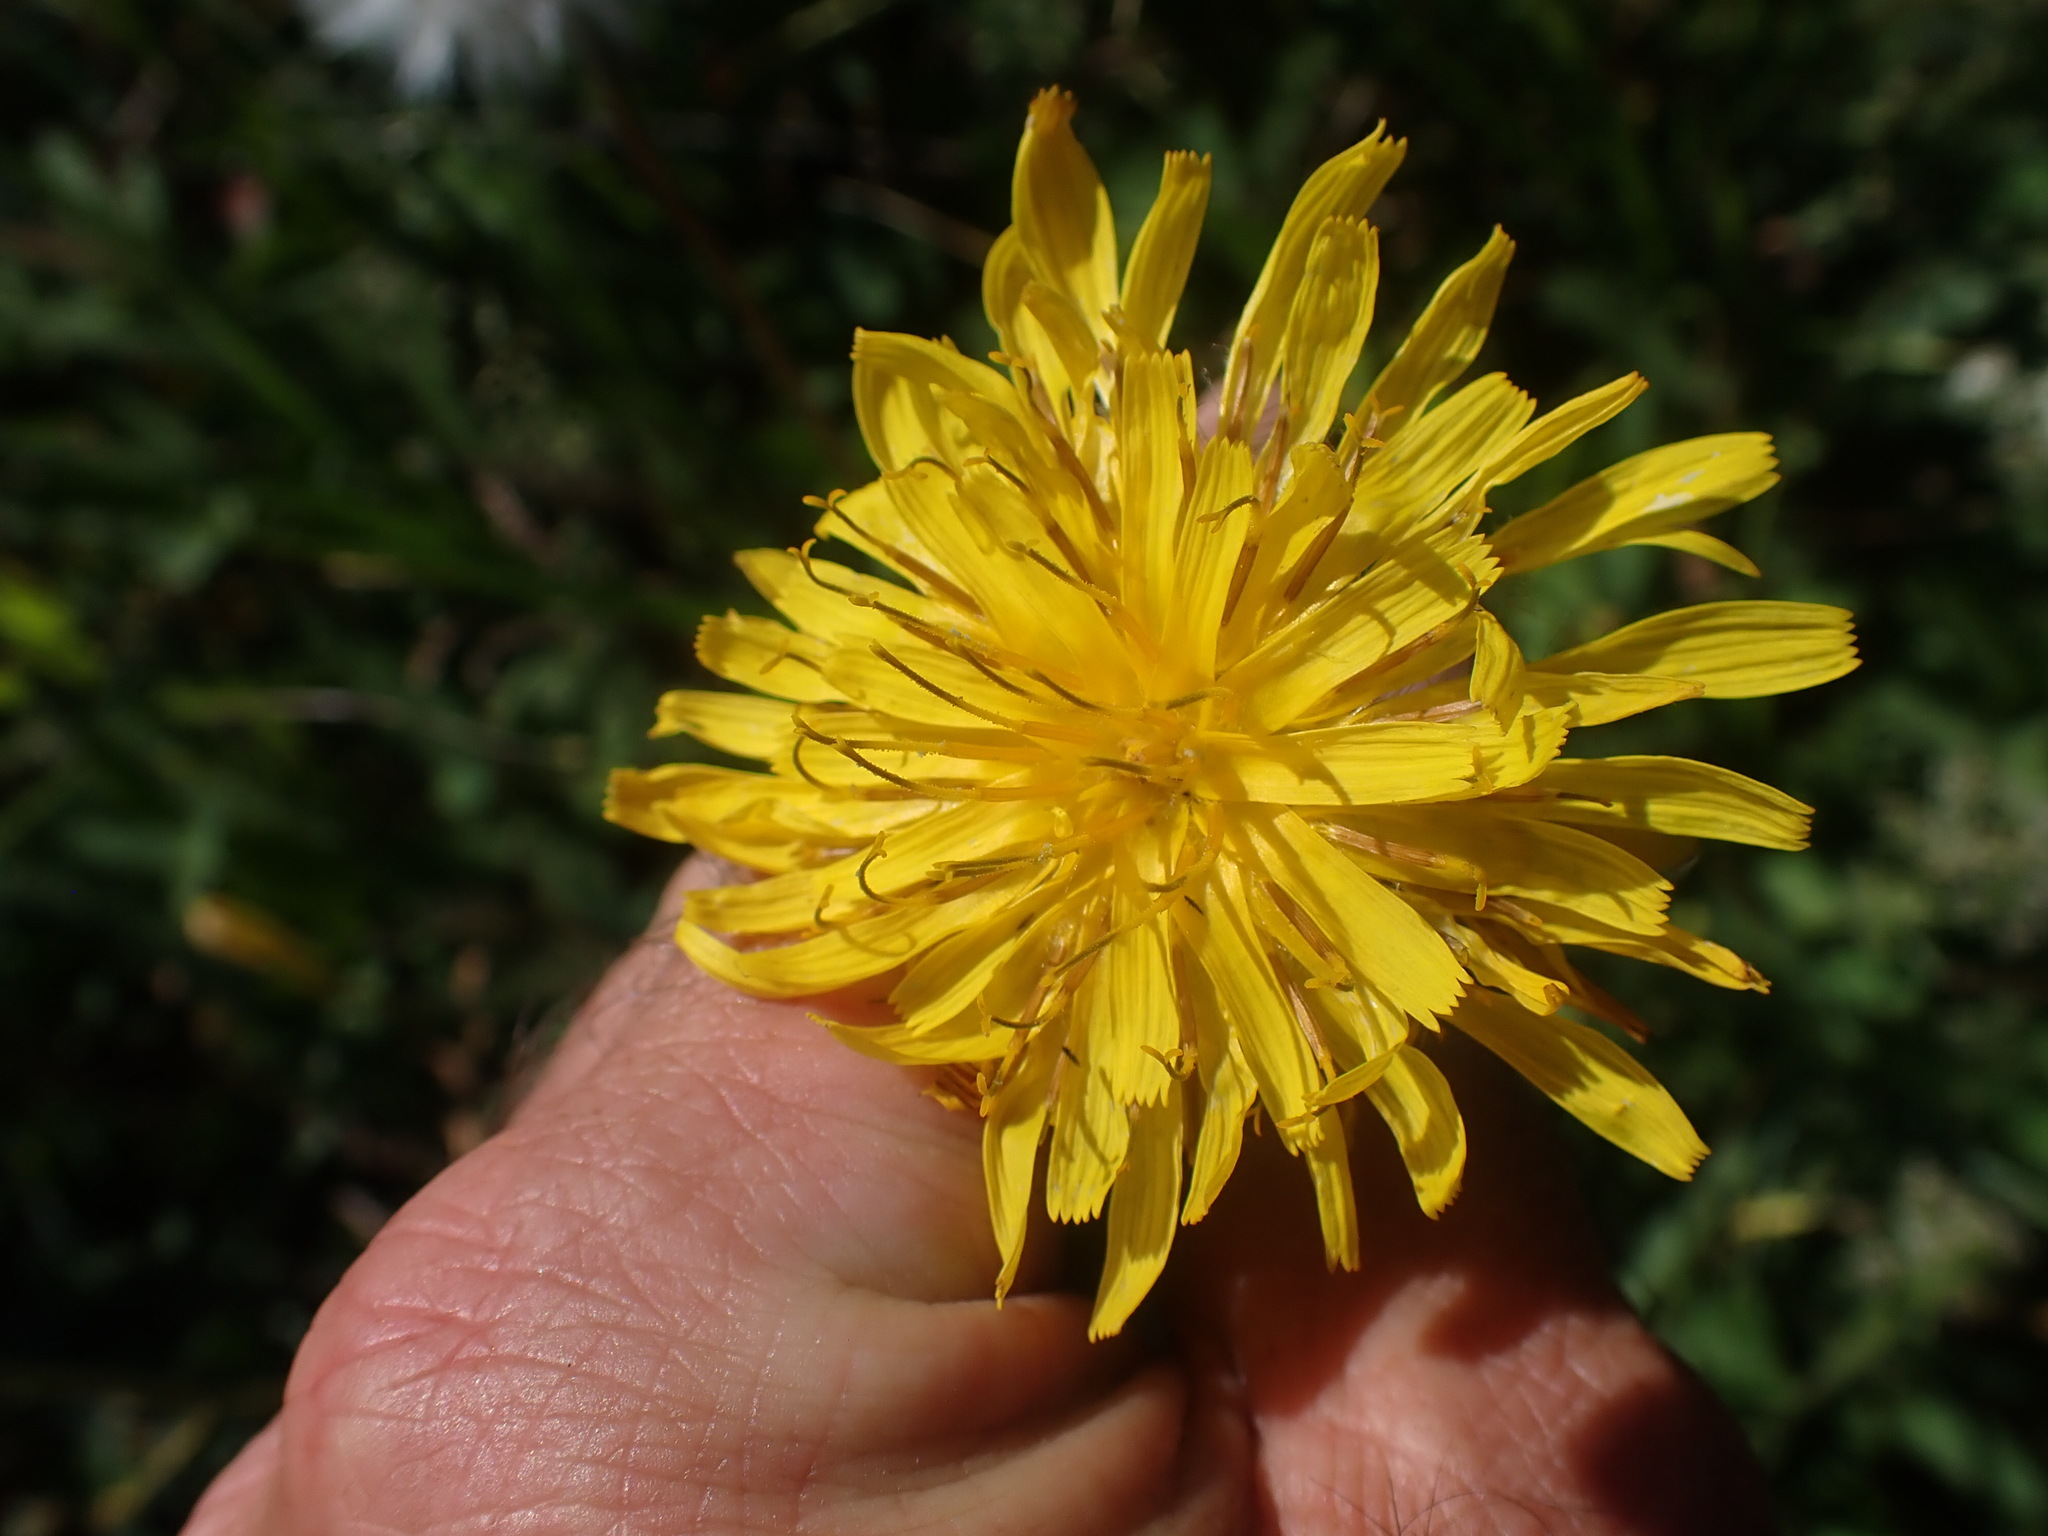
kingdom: Plantae
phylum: Tracheophyta
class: Magnoliopsida
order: Asterales
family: Asteraceae
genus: Agoseris
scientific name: Agoseris glauca
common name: Prairie agoseris
